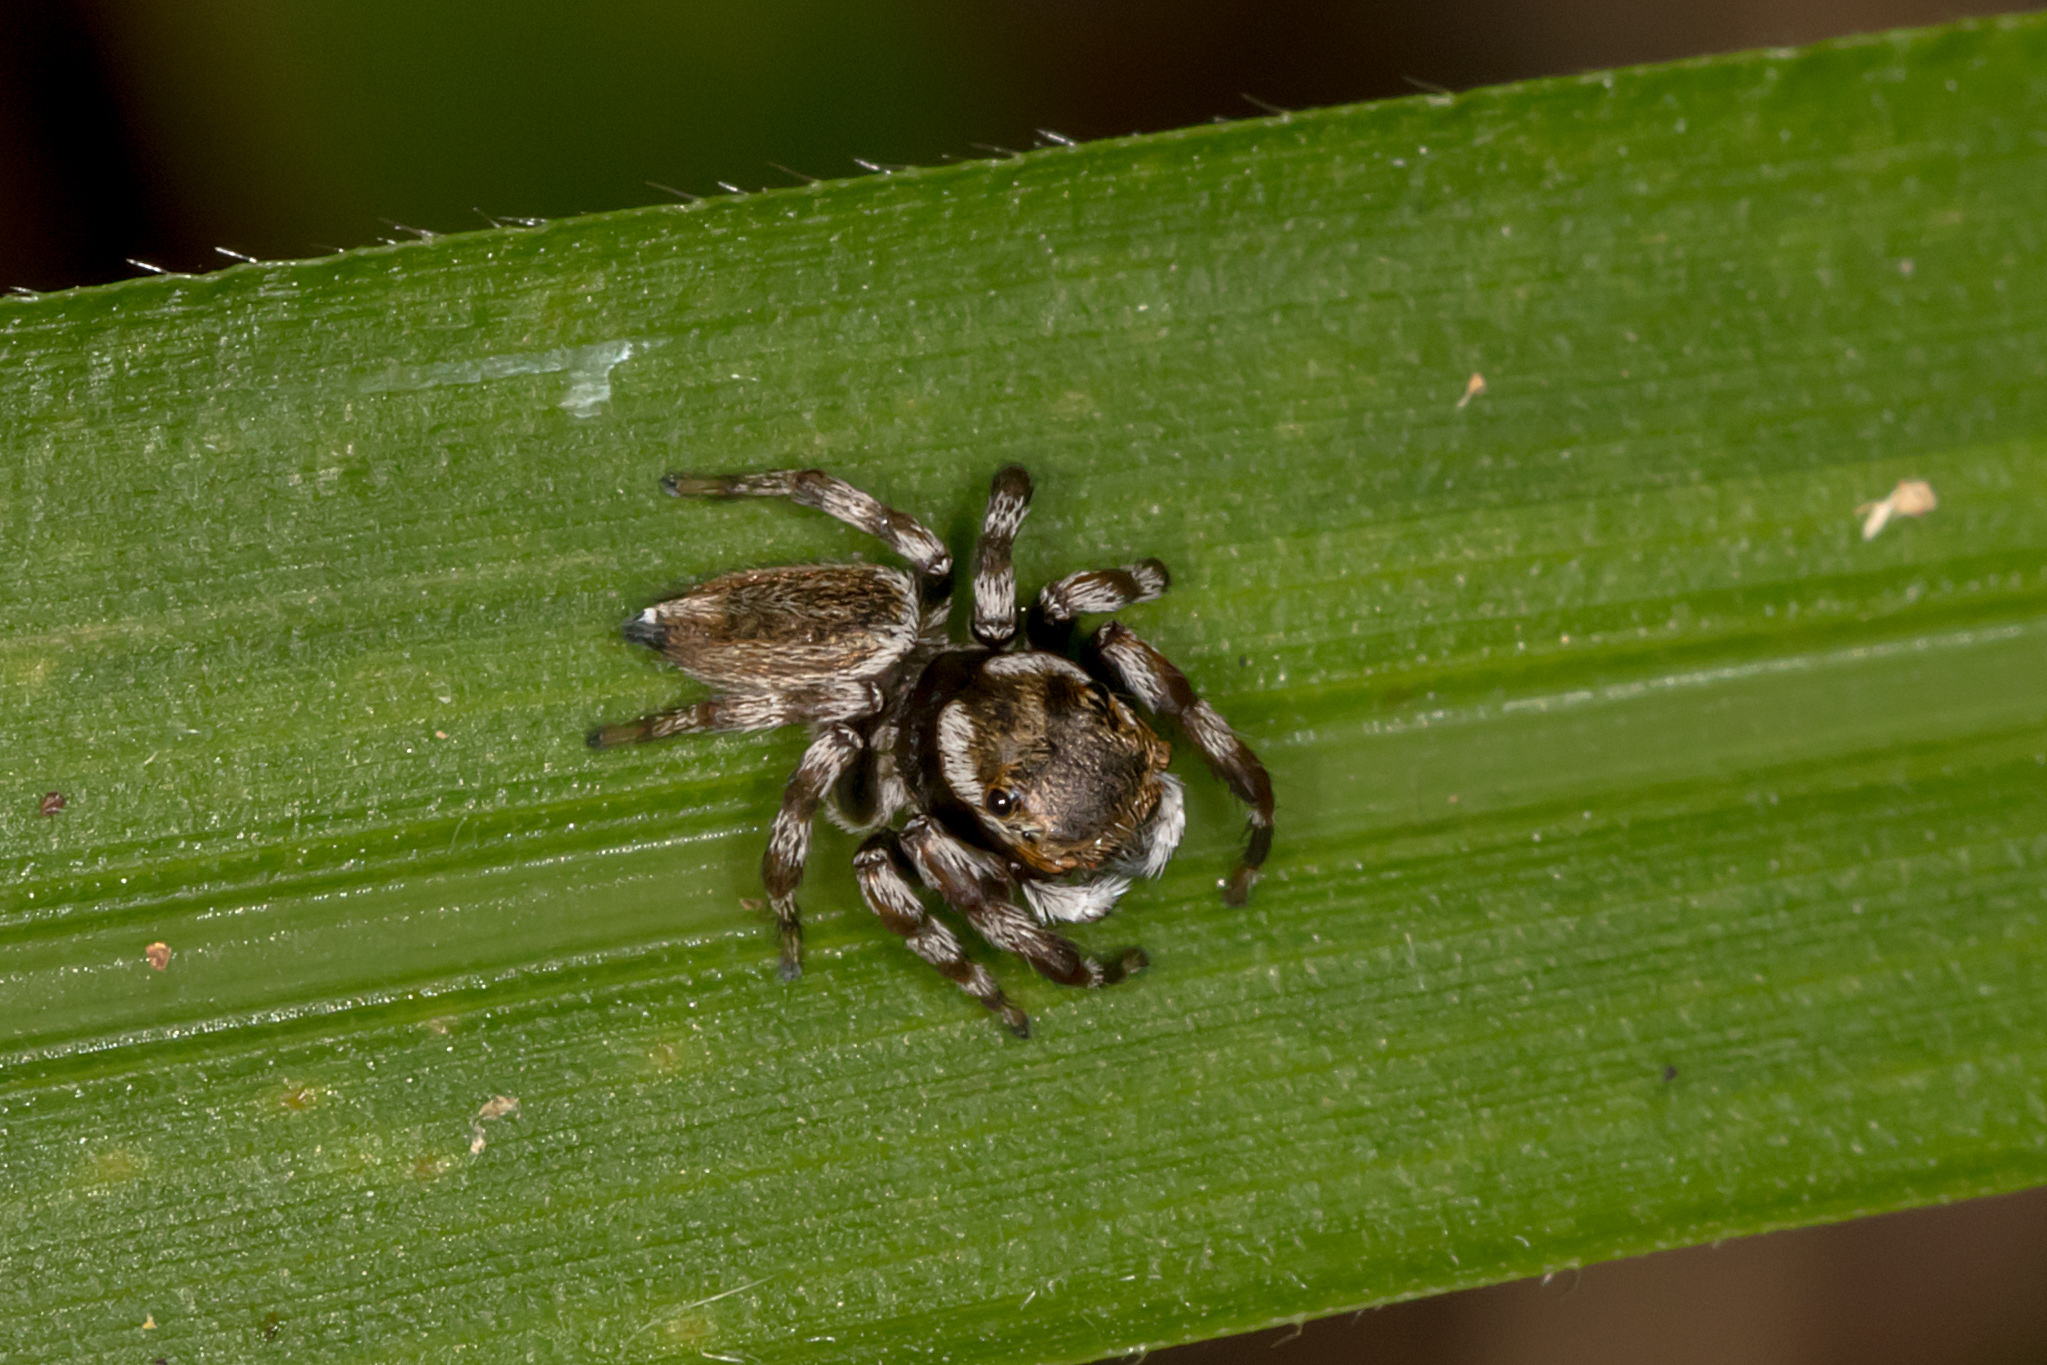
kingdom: Animalia
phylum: Arthropoda
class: Arachnida
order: Araneae
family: Salticidae
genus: Maratus
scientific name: Maratus scutulatus
